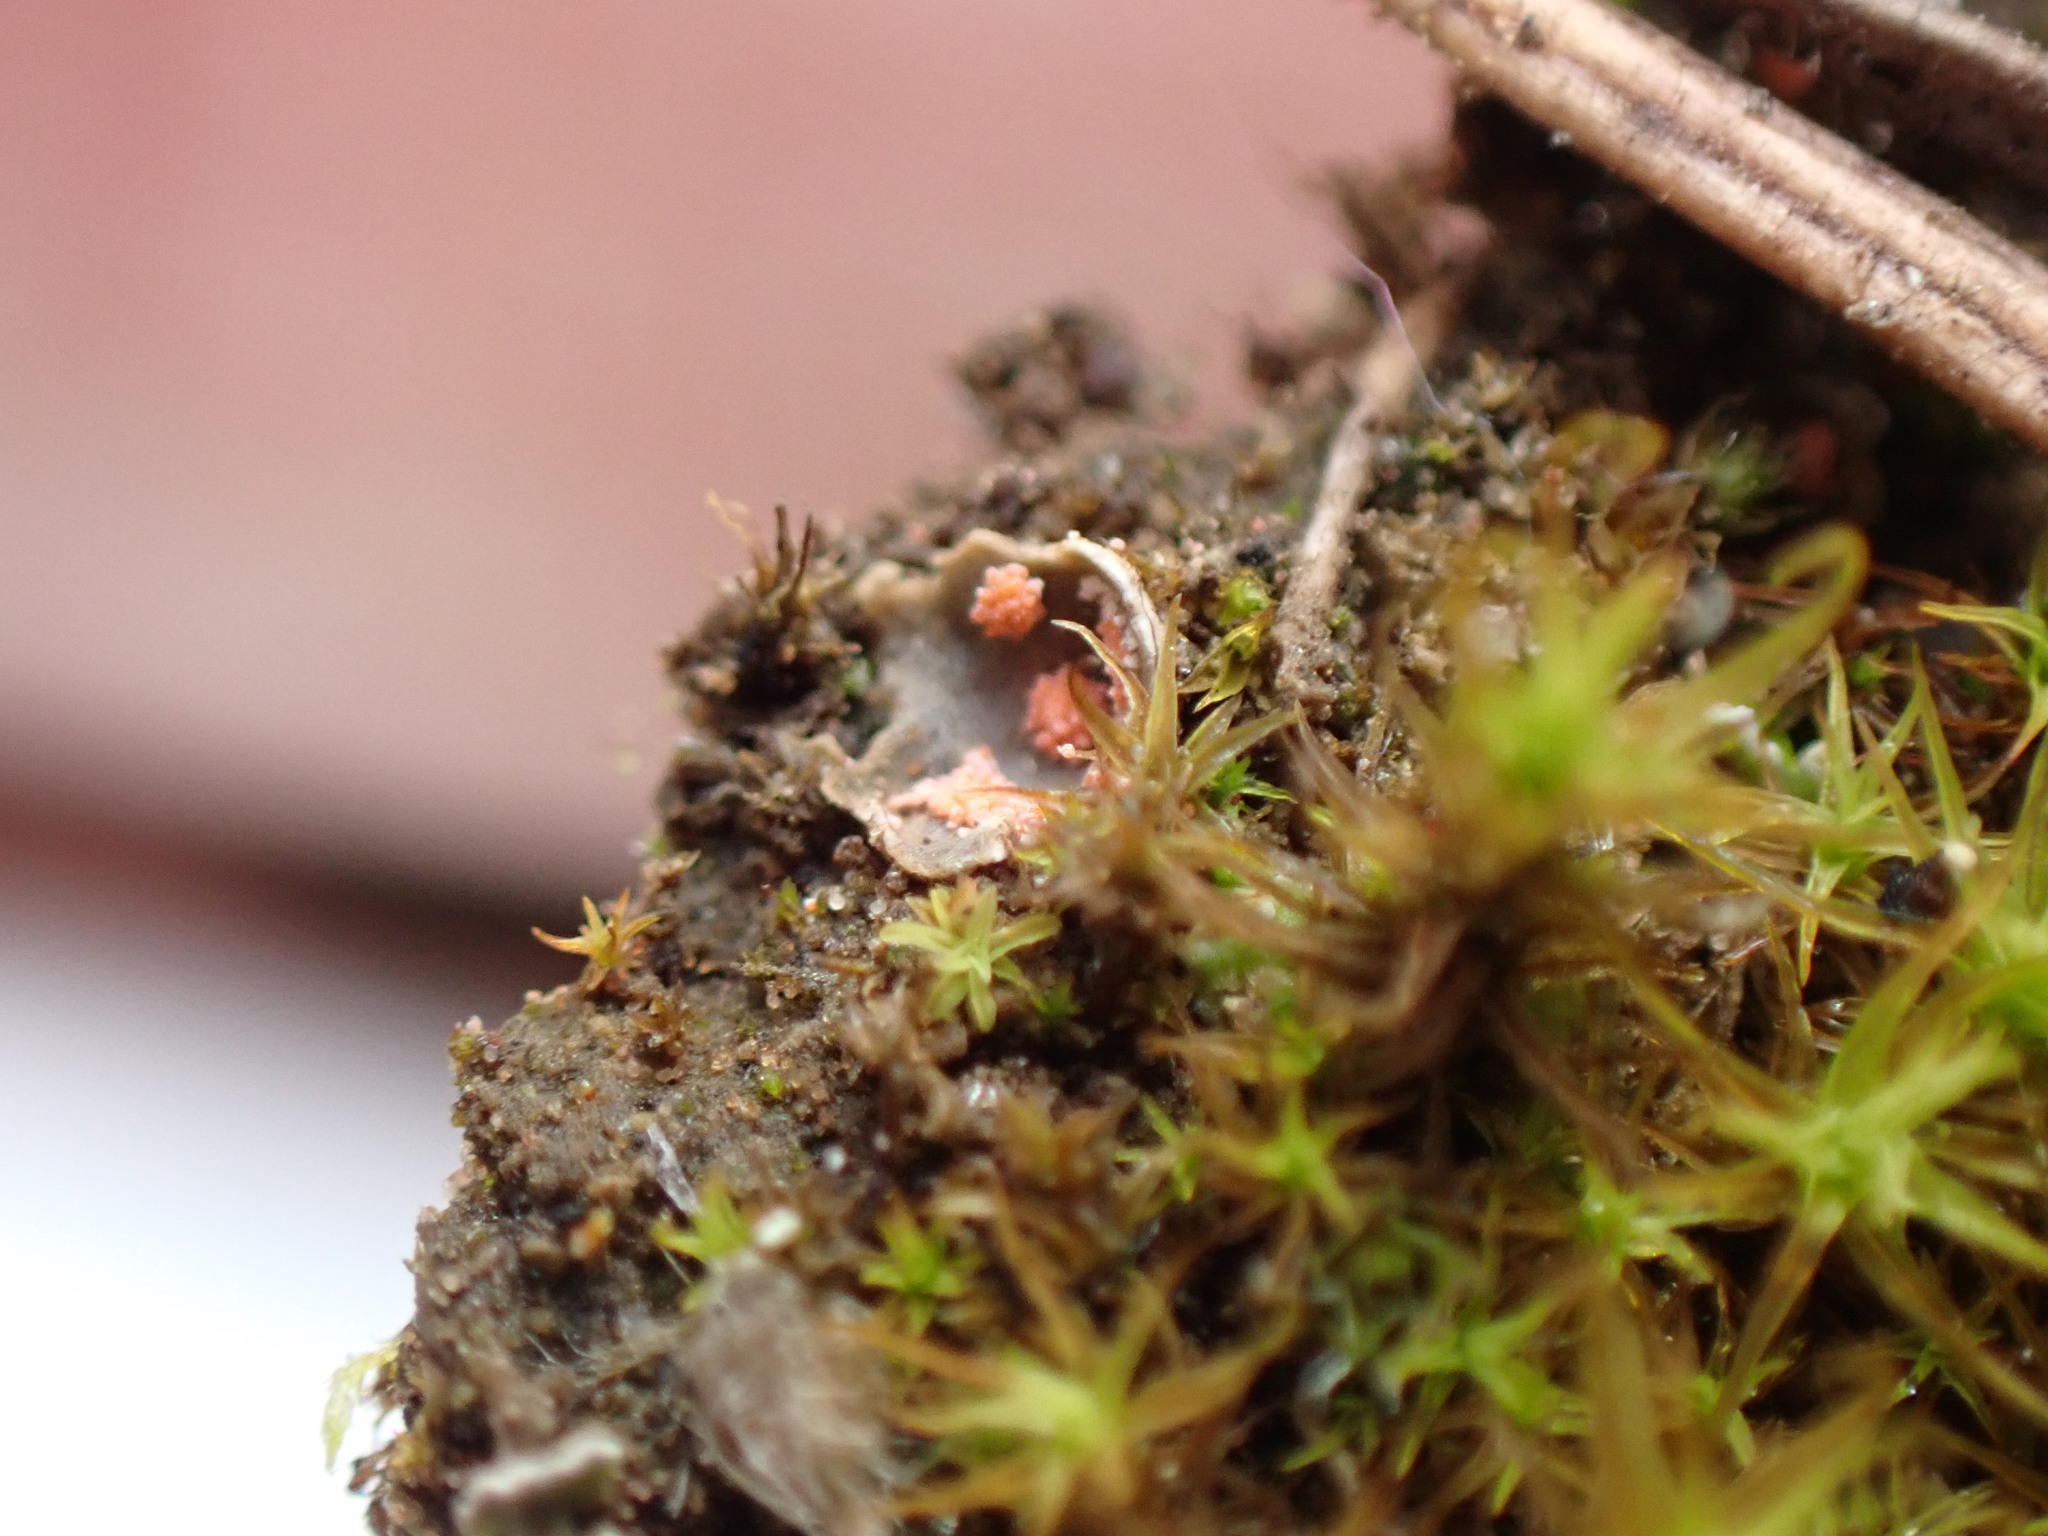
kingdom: Fungi
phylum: Ascomycota
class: Sordariomycetes
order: Hypocreales
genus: Illosporium
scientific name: Illosporium roseum
